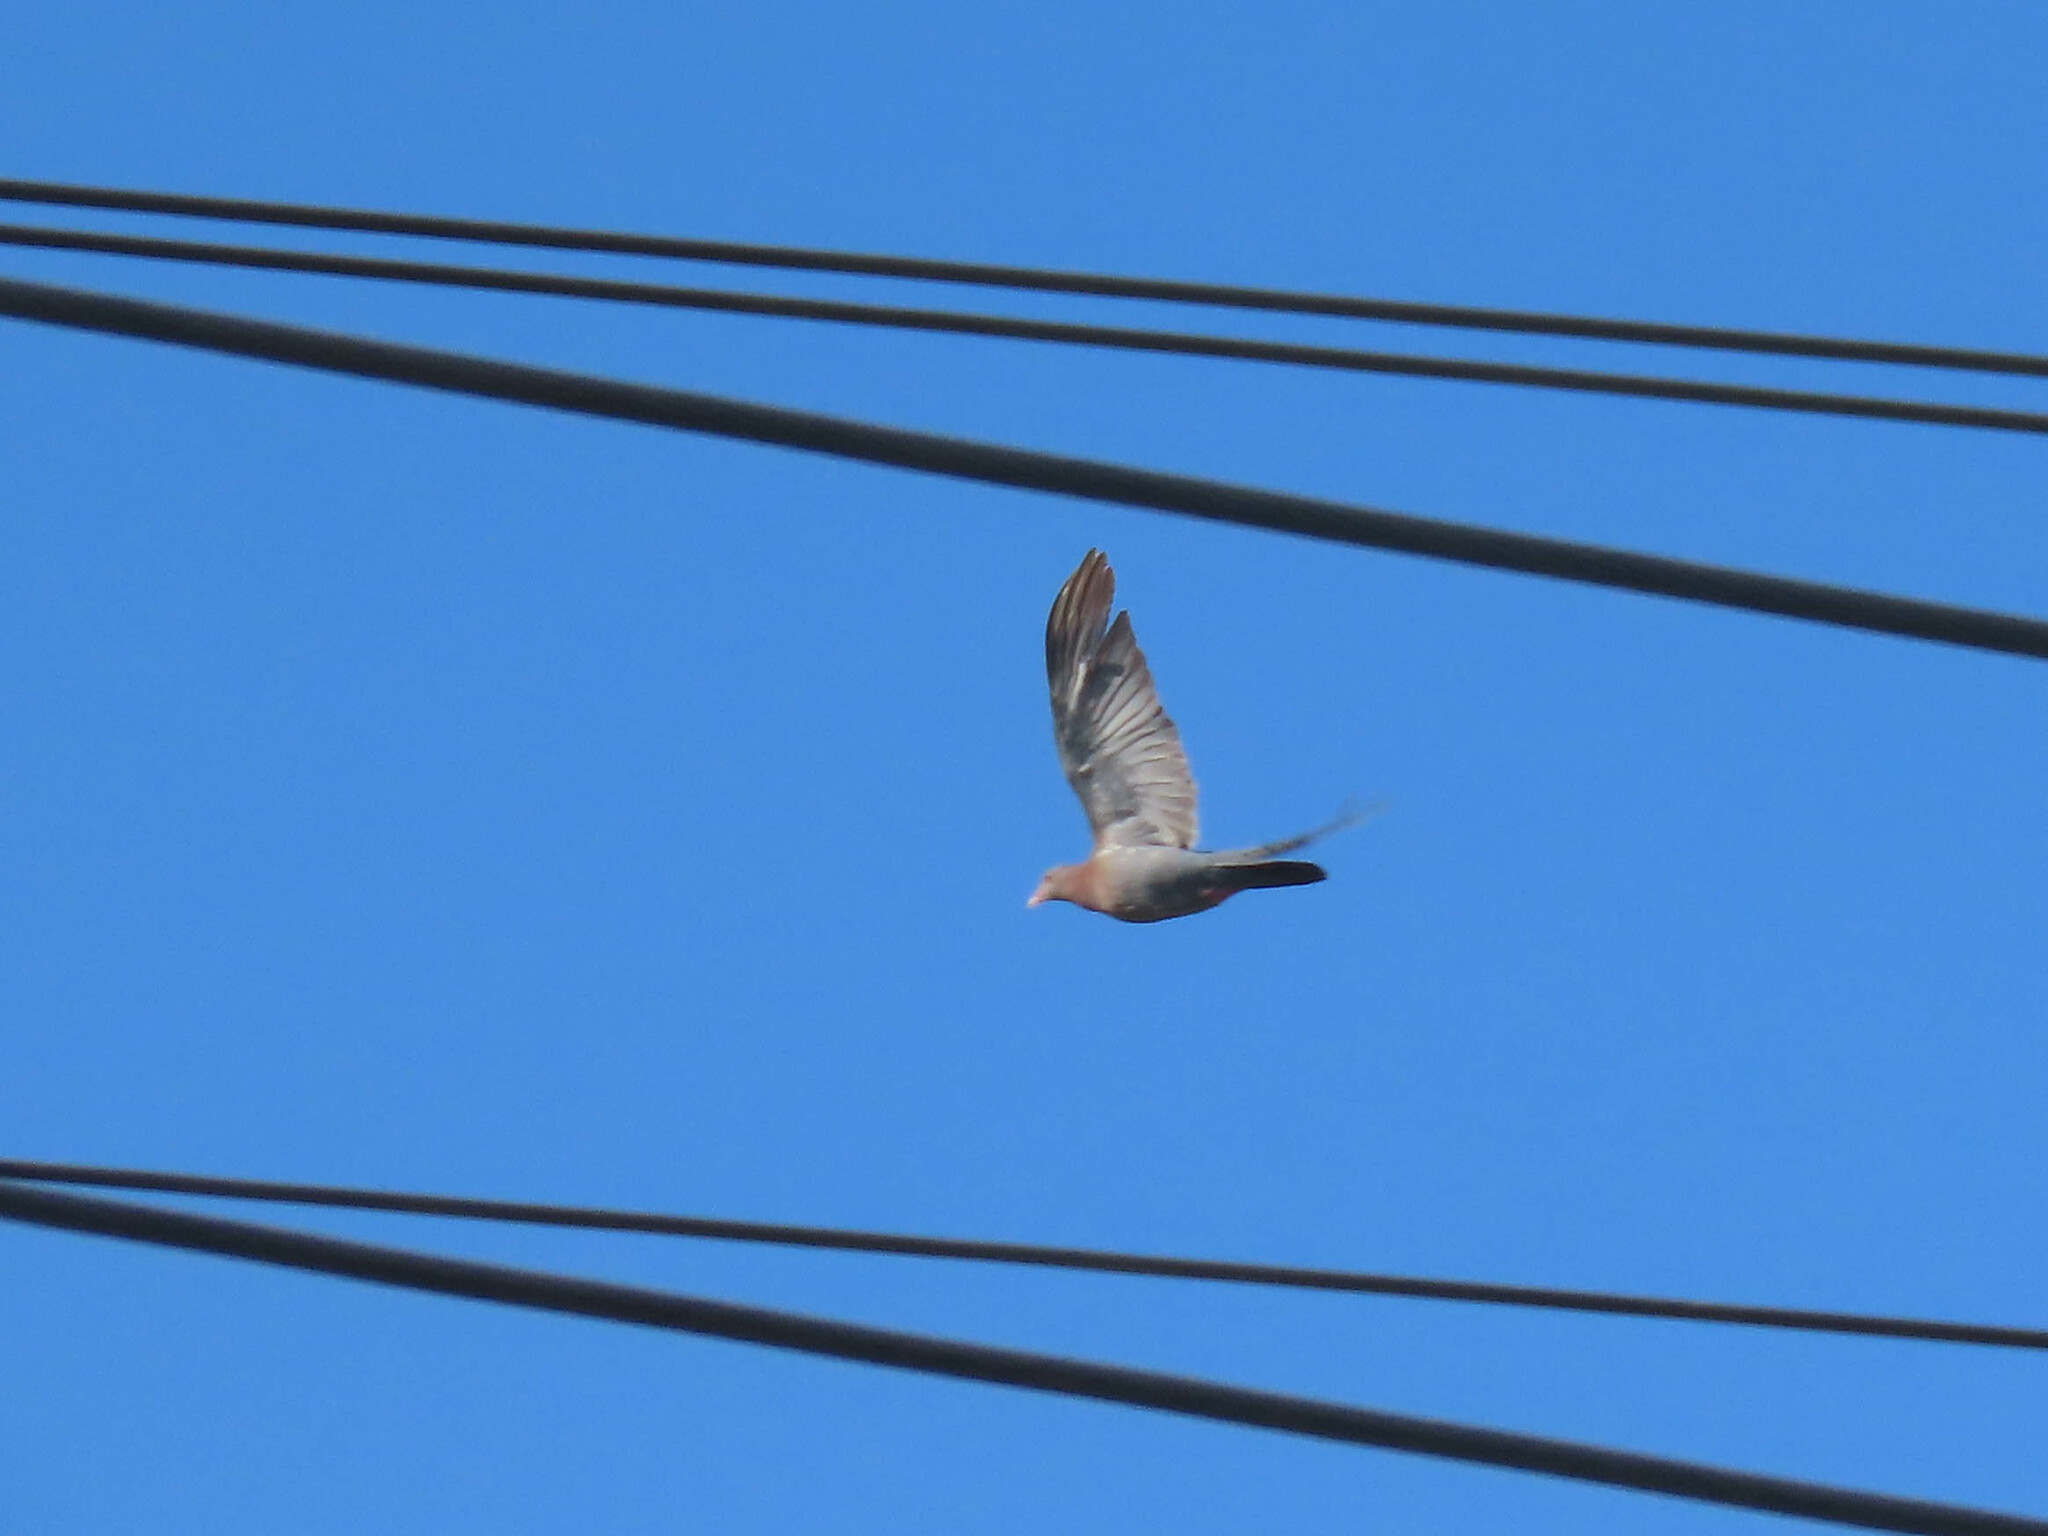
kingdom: Animalia
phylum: Chordata
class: Aves
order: Columbiformes
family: Columbidae
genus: Patagioenas
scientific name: Patagioenas flavirostris
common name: Red-billed pigeon
